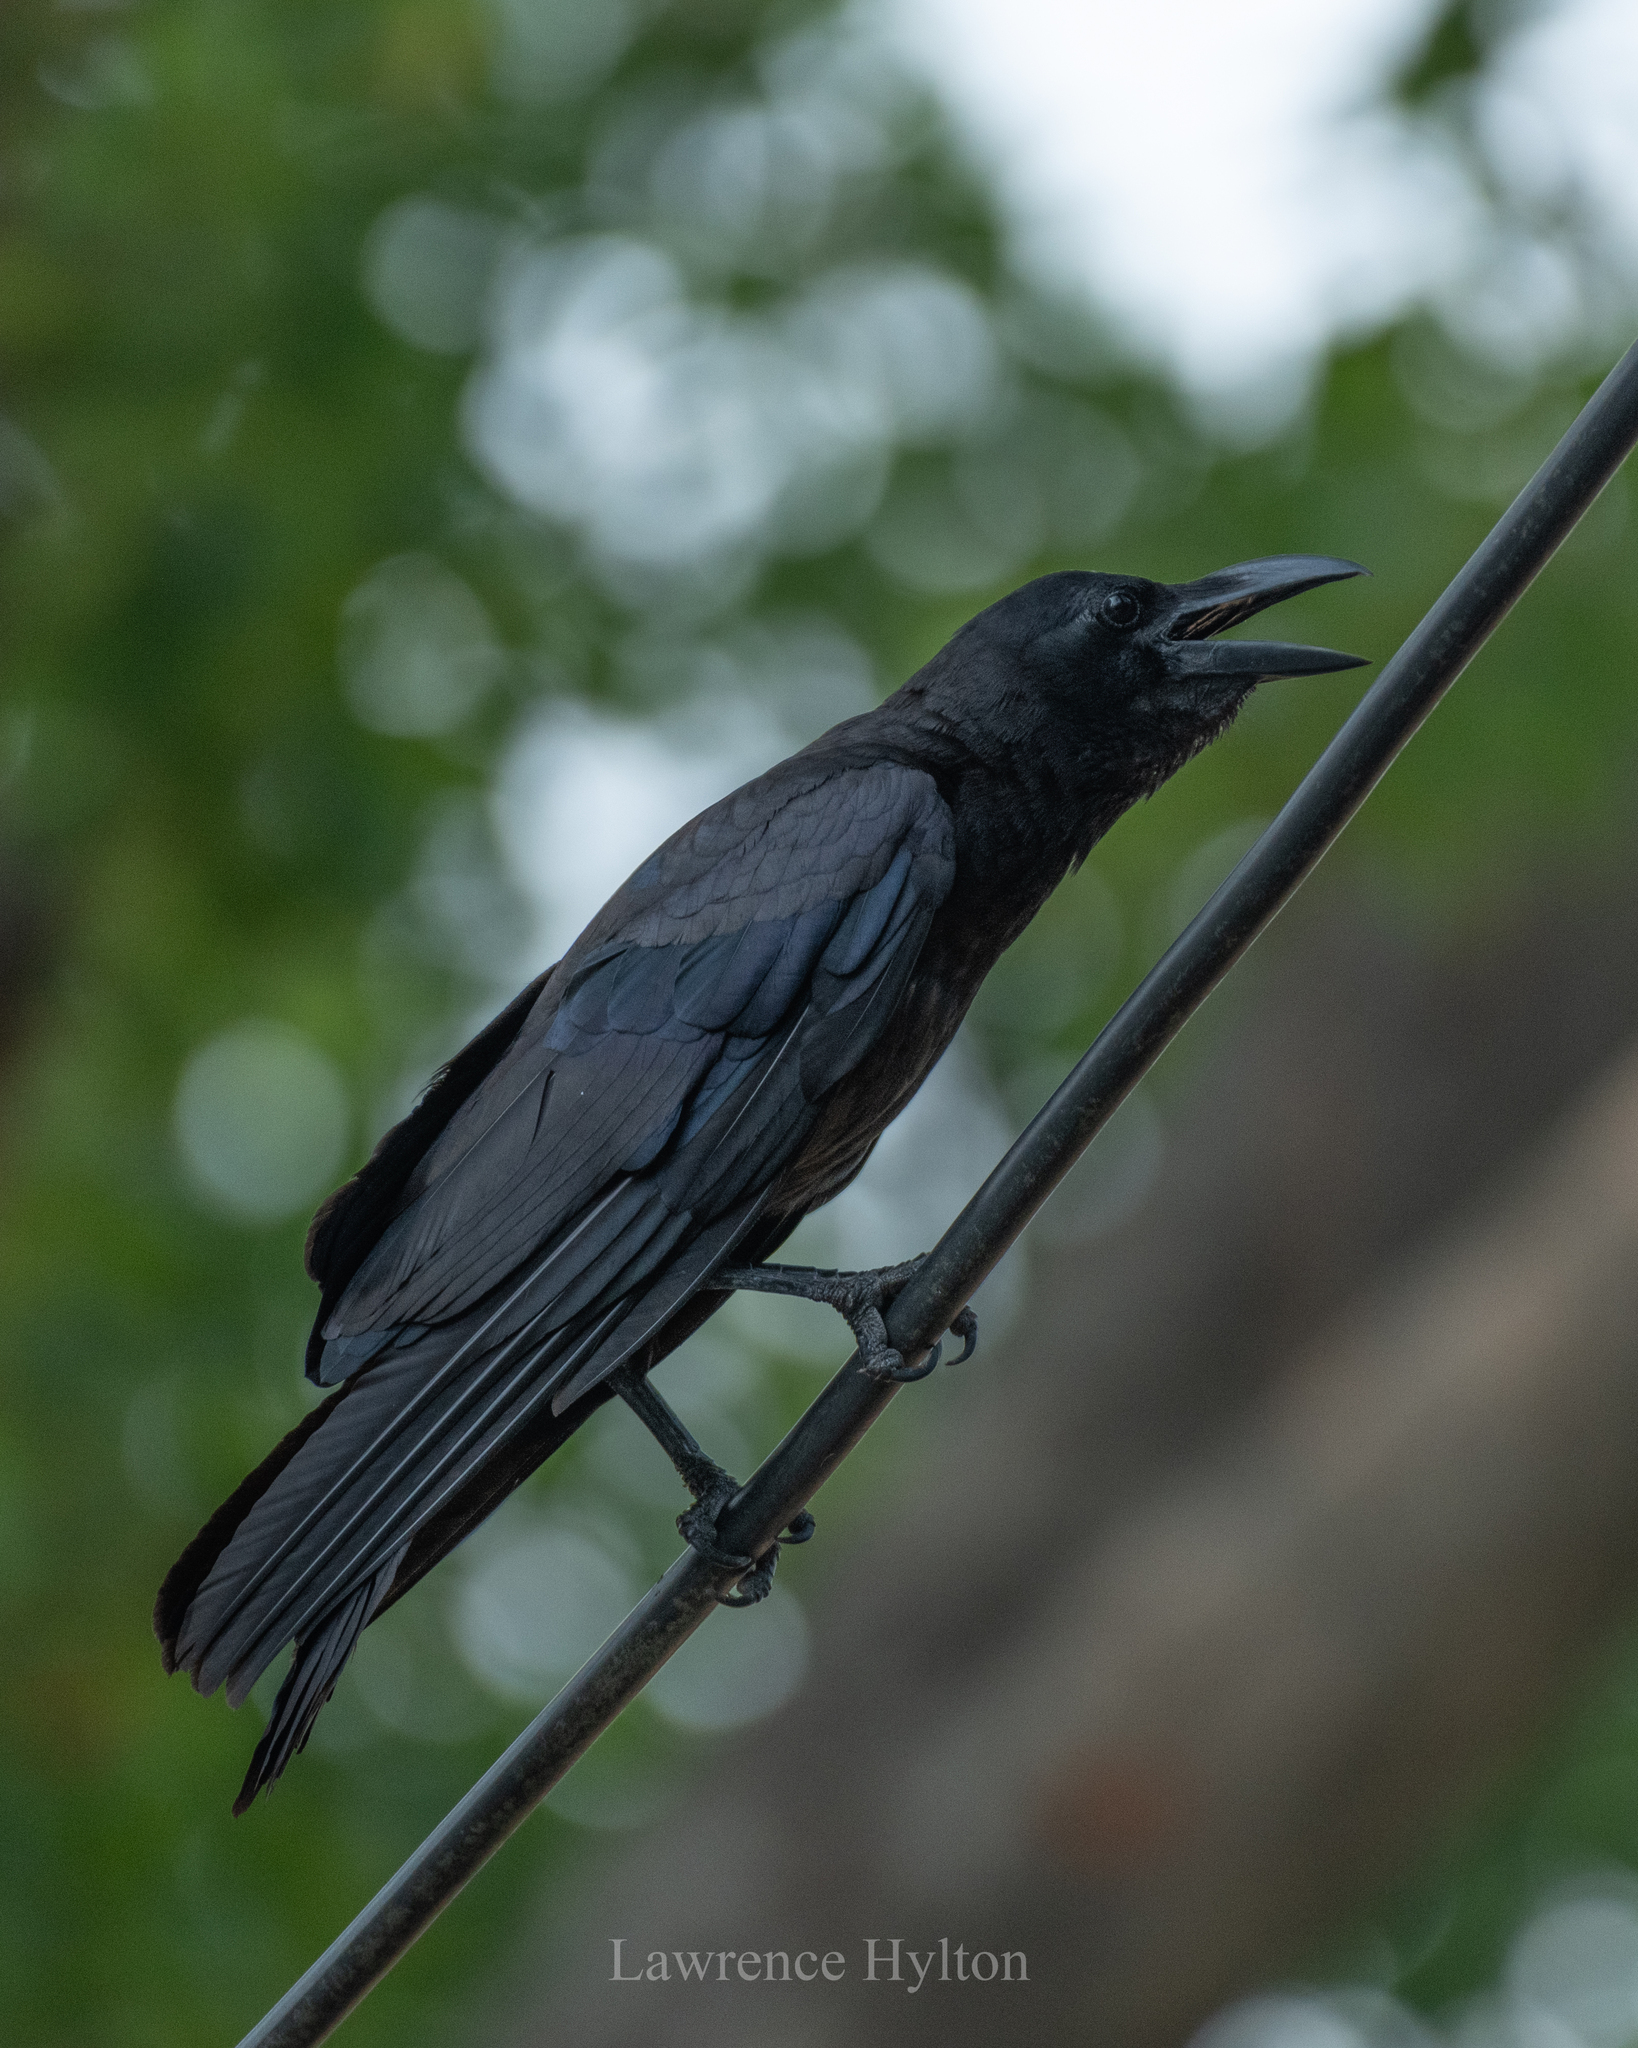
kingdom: Animalia
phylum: Chordata
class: Aves
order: Passeriformes
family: Corvidae
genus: Corvus
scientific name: Corvus macrorhynchos
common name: Large-billed crow
